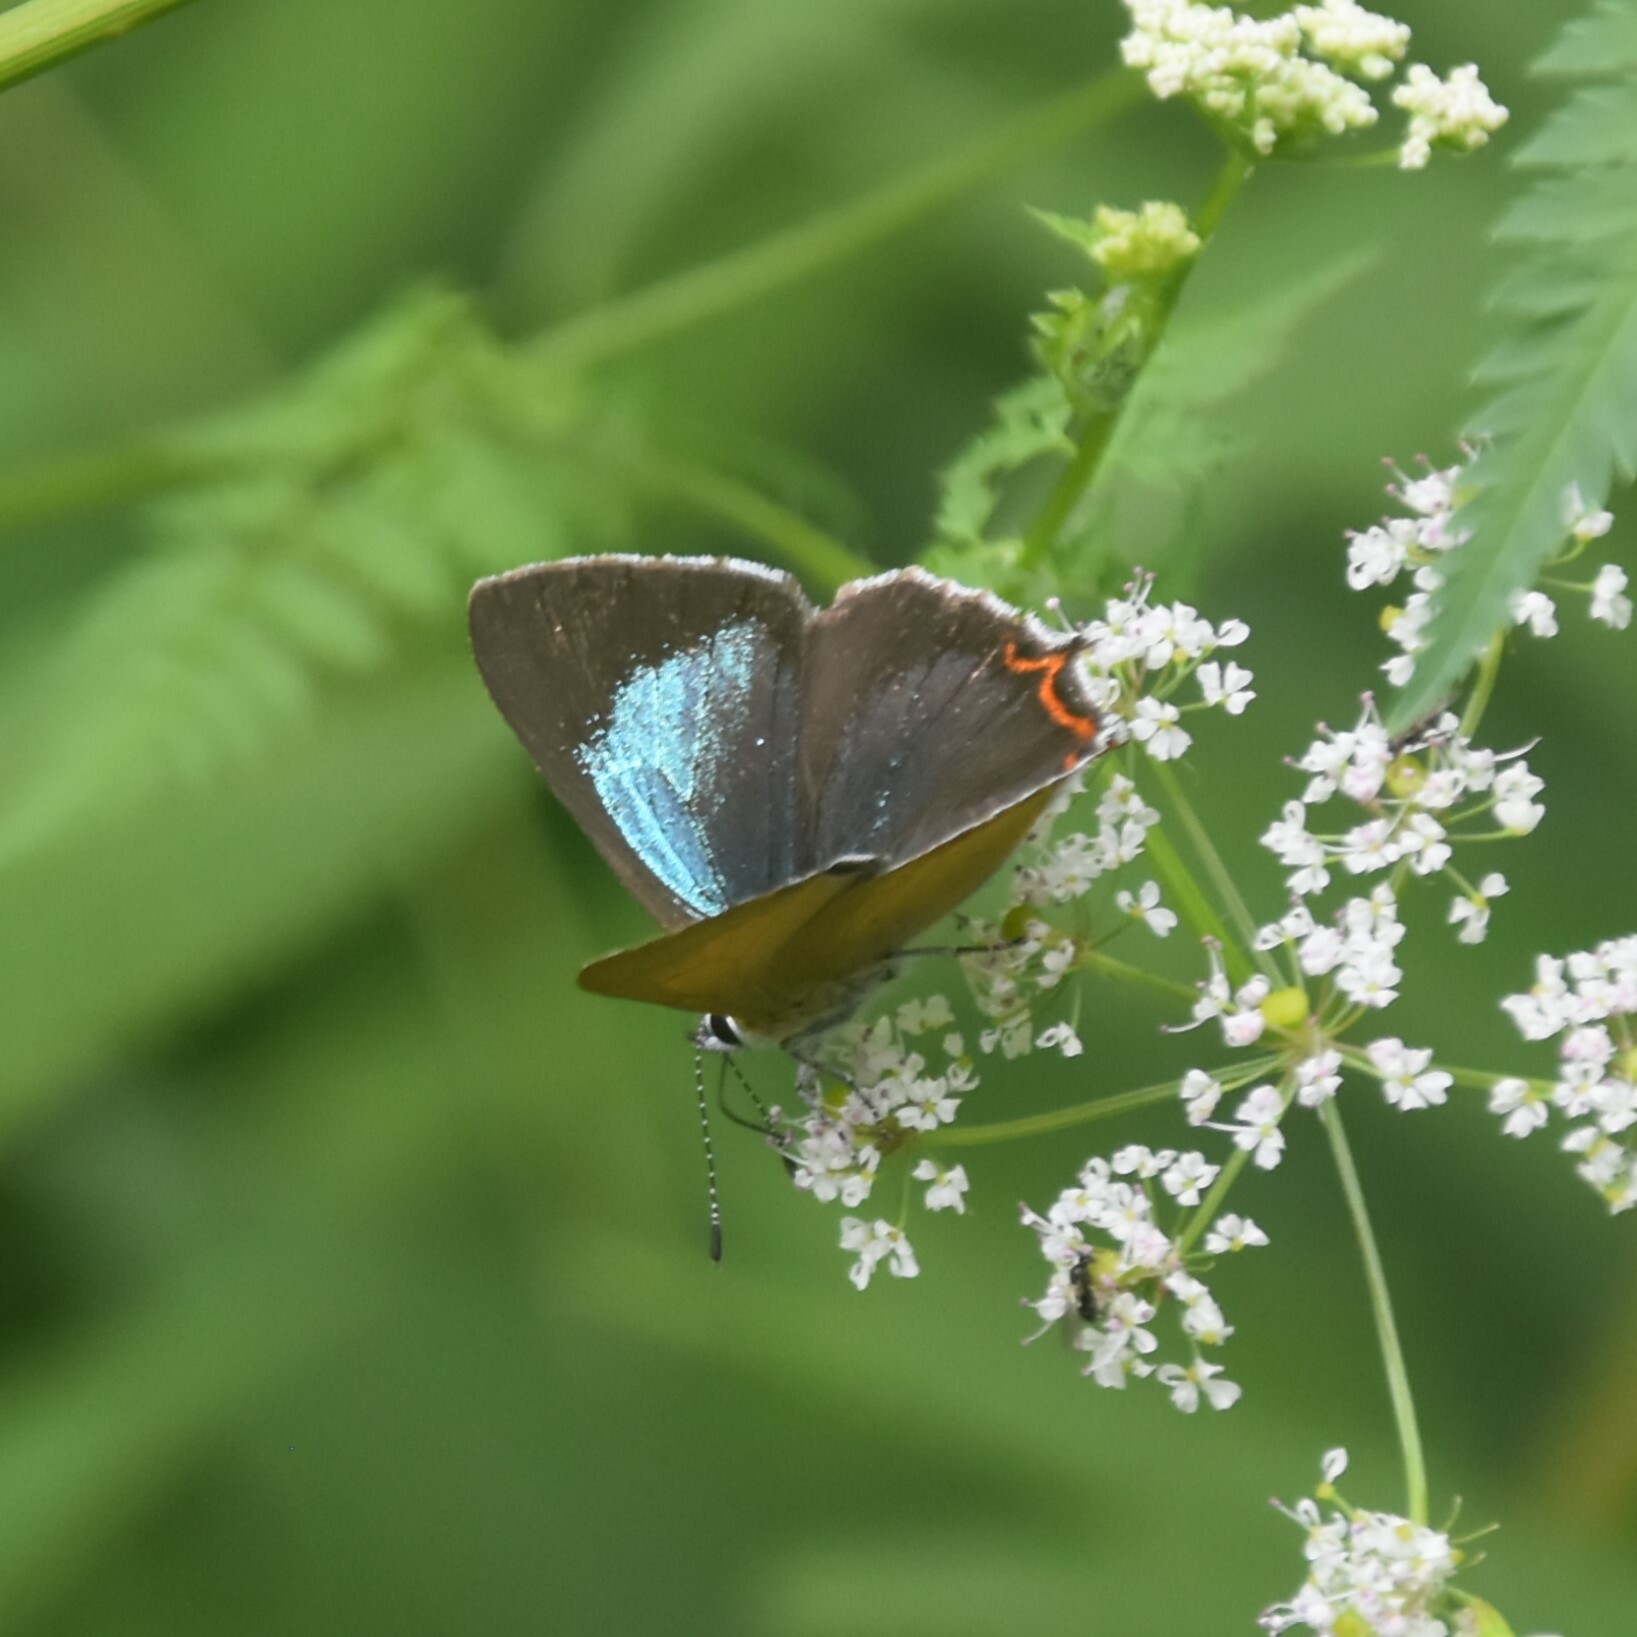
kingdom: Animalia
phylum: Arthropoda
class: Insecta
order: Lepidoptera
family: Lycaenidae
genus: Heliophorus
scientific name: Heliophorus
